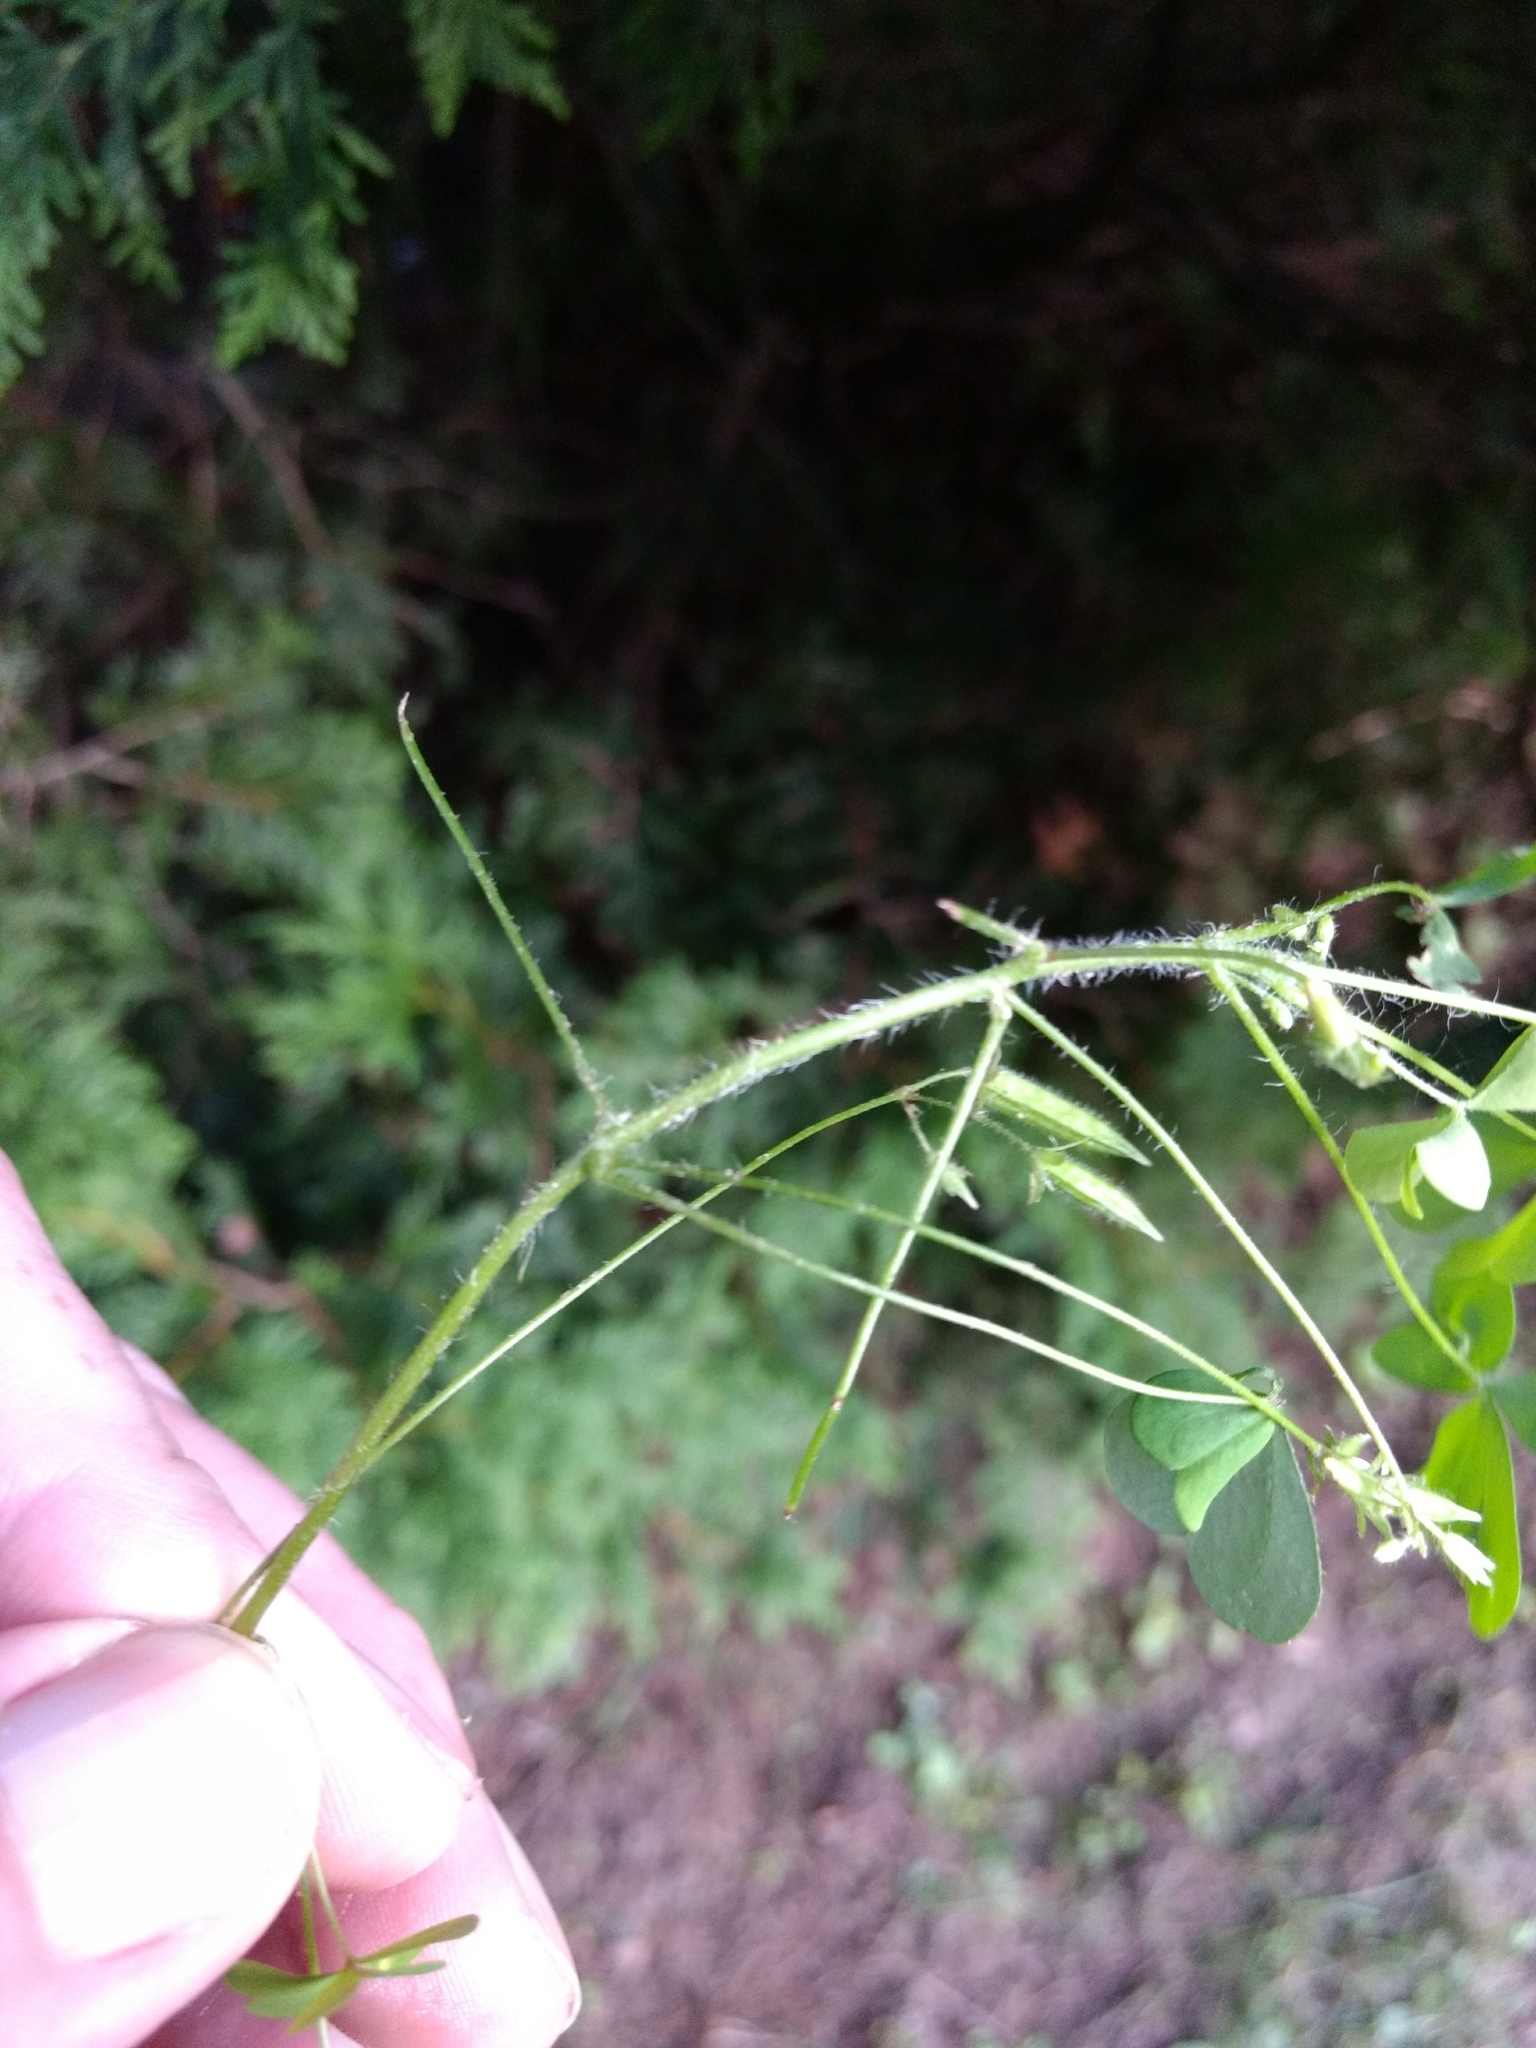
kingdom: Plantae
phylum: Tracheophyta
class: Magnoliopsida
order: Oxalidales
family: Oxalidaceae
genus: Oxalis
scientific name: Oxalis stricta
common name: Upright yellow-sorrel
